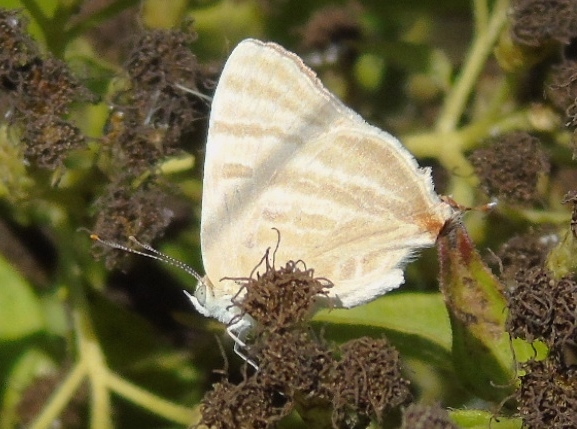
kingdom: Animalia
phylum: Arthropoda
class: Insecta
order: Lepidoptera
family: Lycaenidae
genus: Dolymorpha
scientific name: Dolymorpha jada
